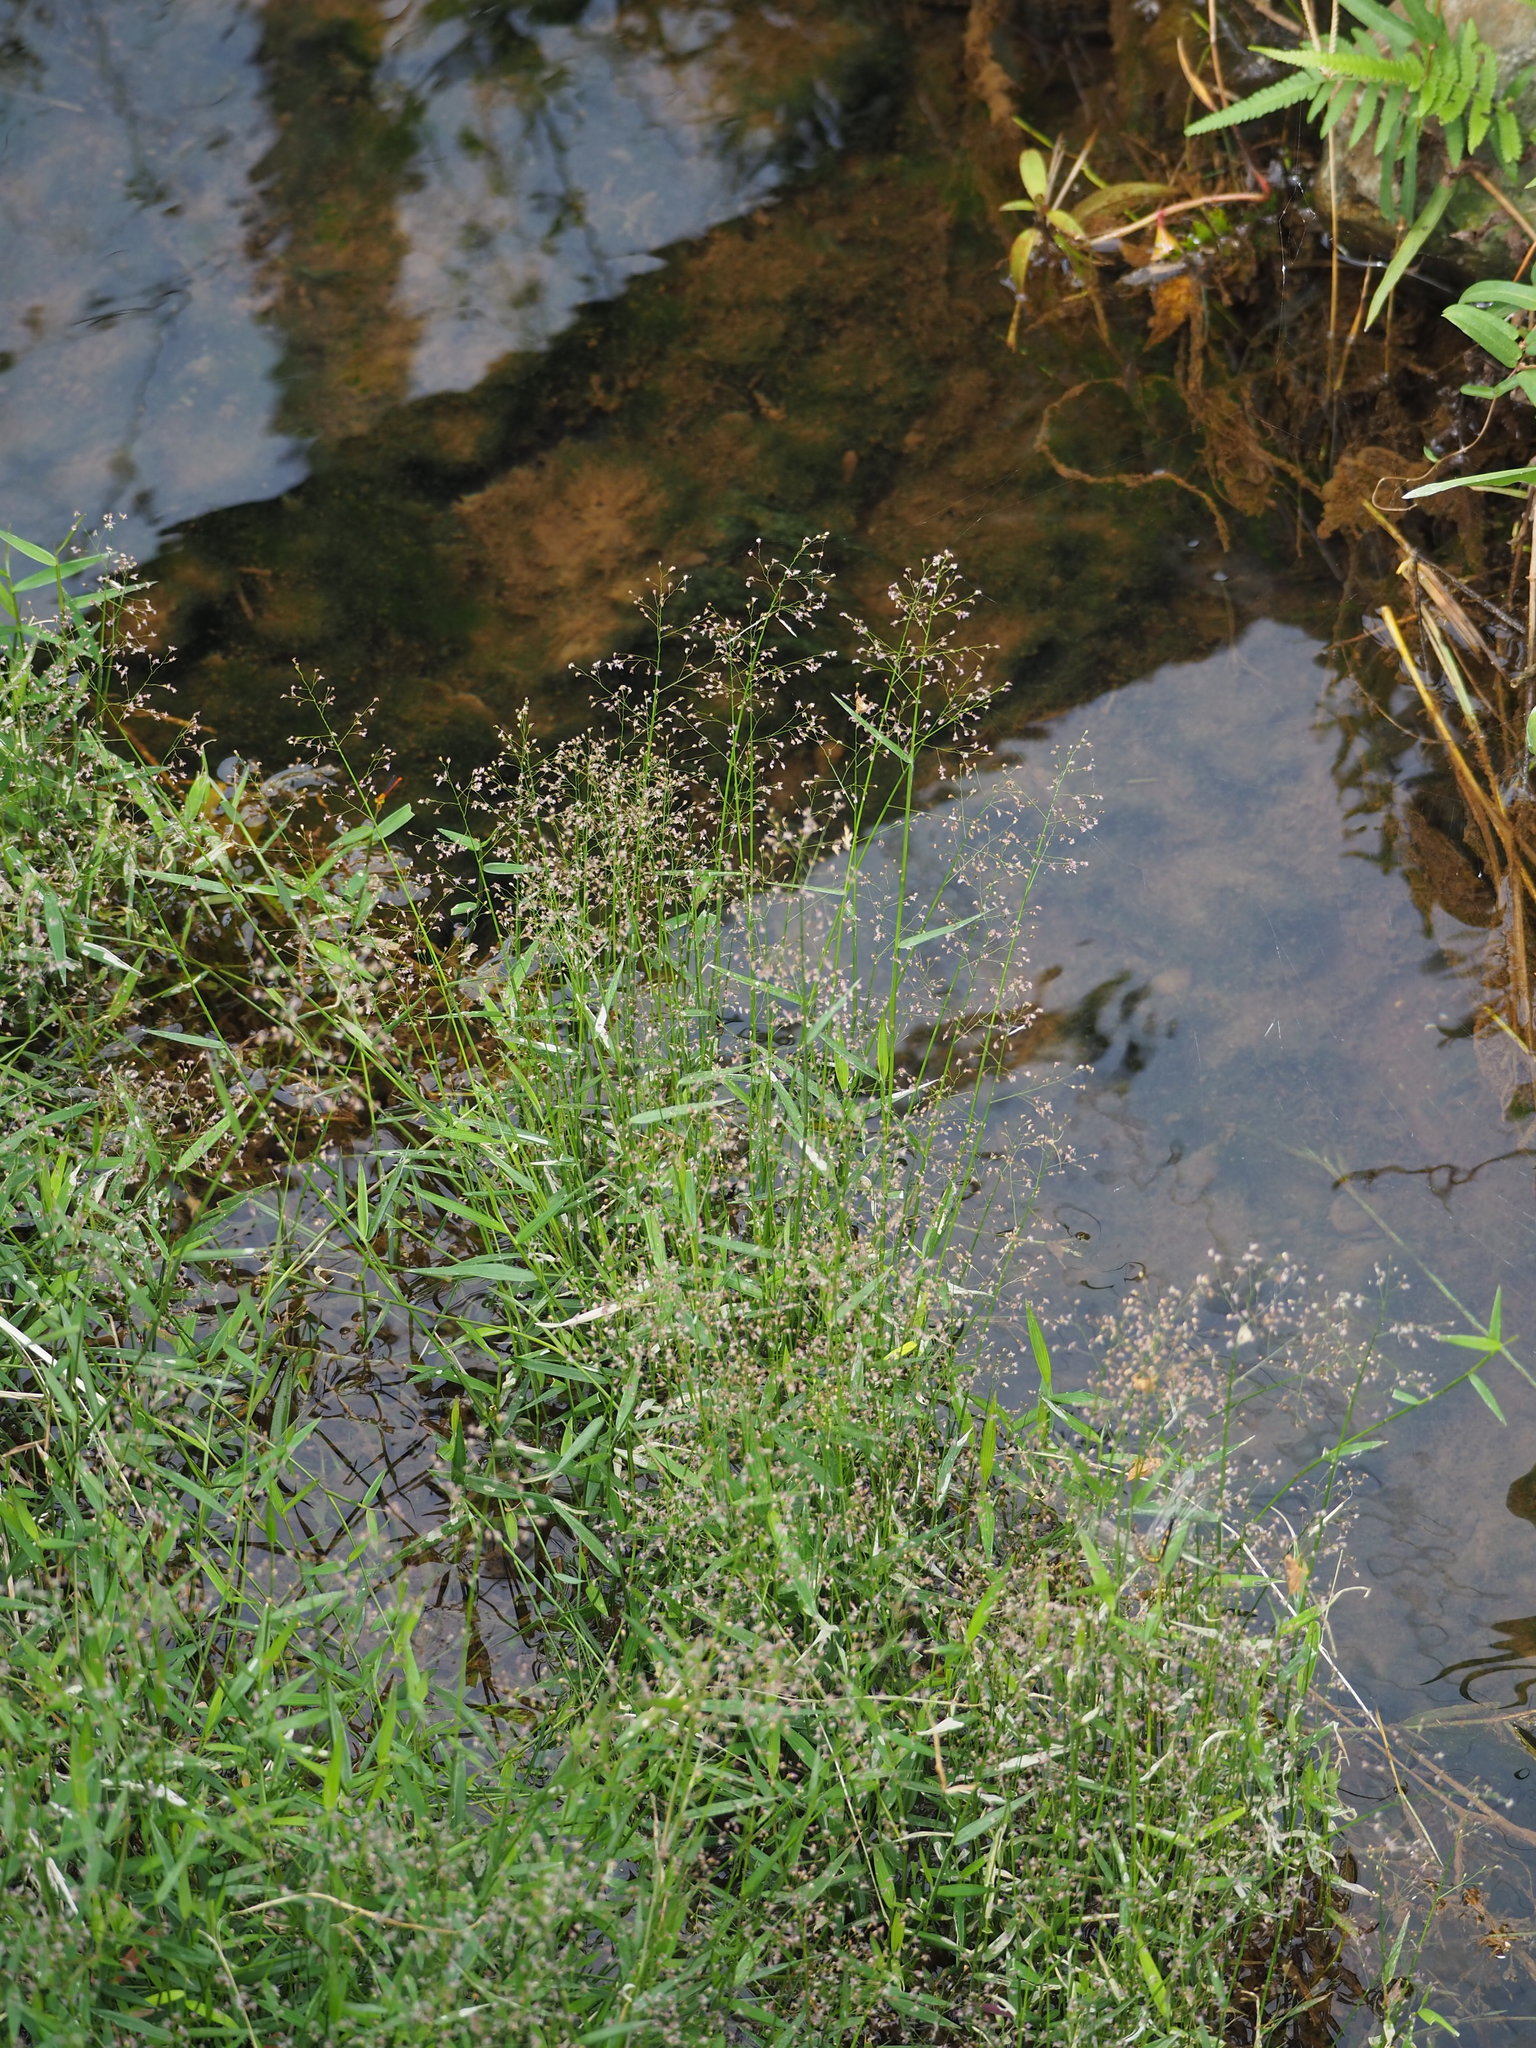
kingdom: Plantae
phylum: Tracheophyta
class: Liliopsida
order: Poales
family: Poaceae
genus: Isachne
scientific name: Isachne globosa
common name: Swamp millet
